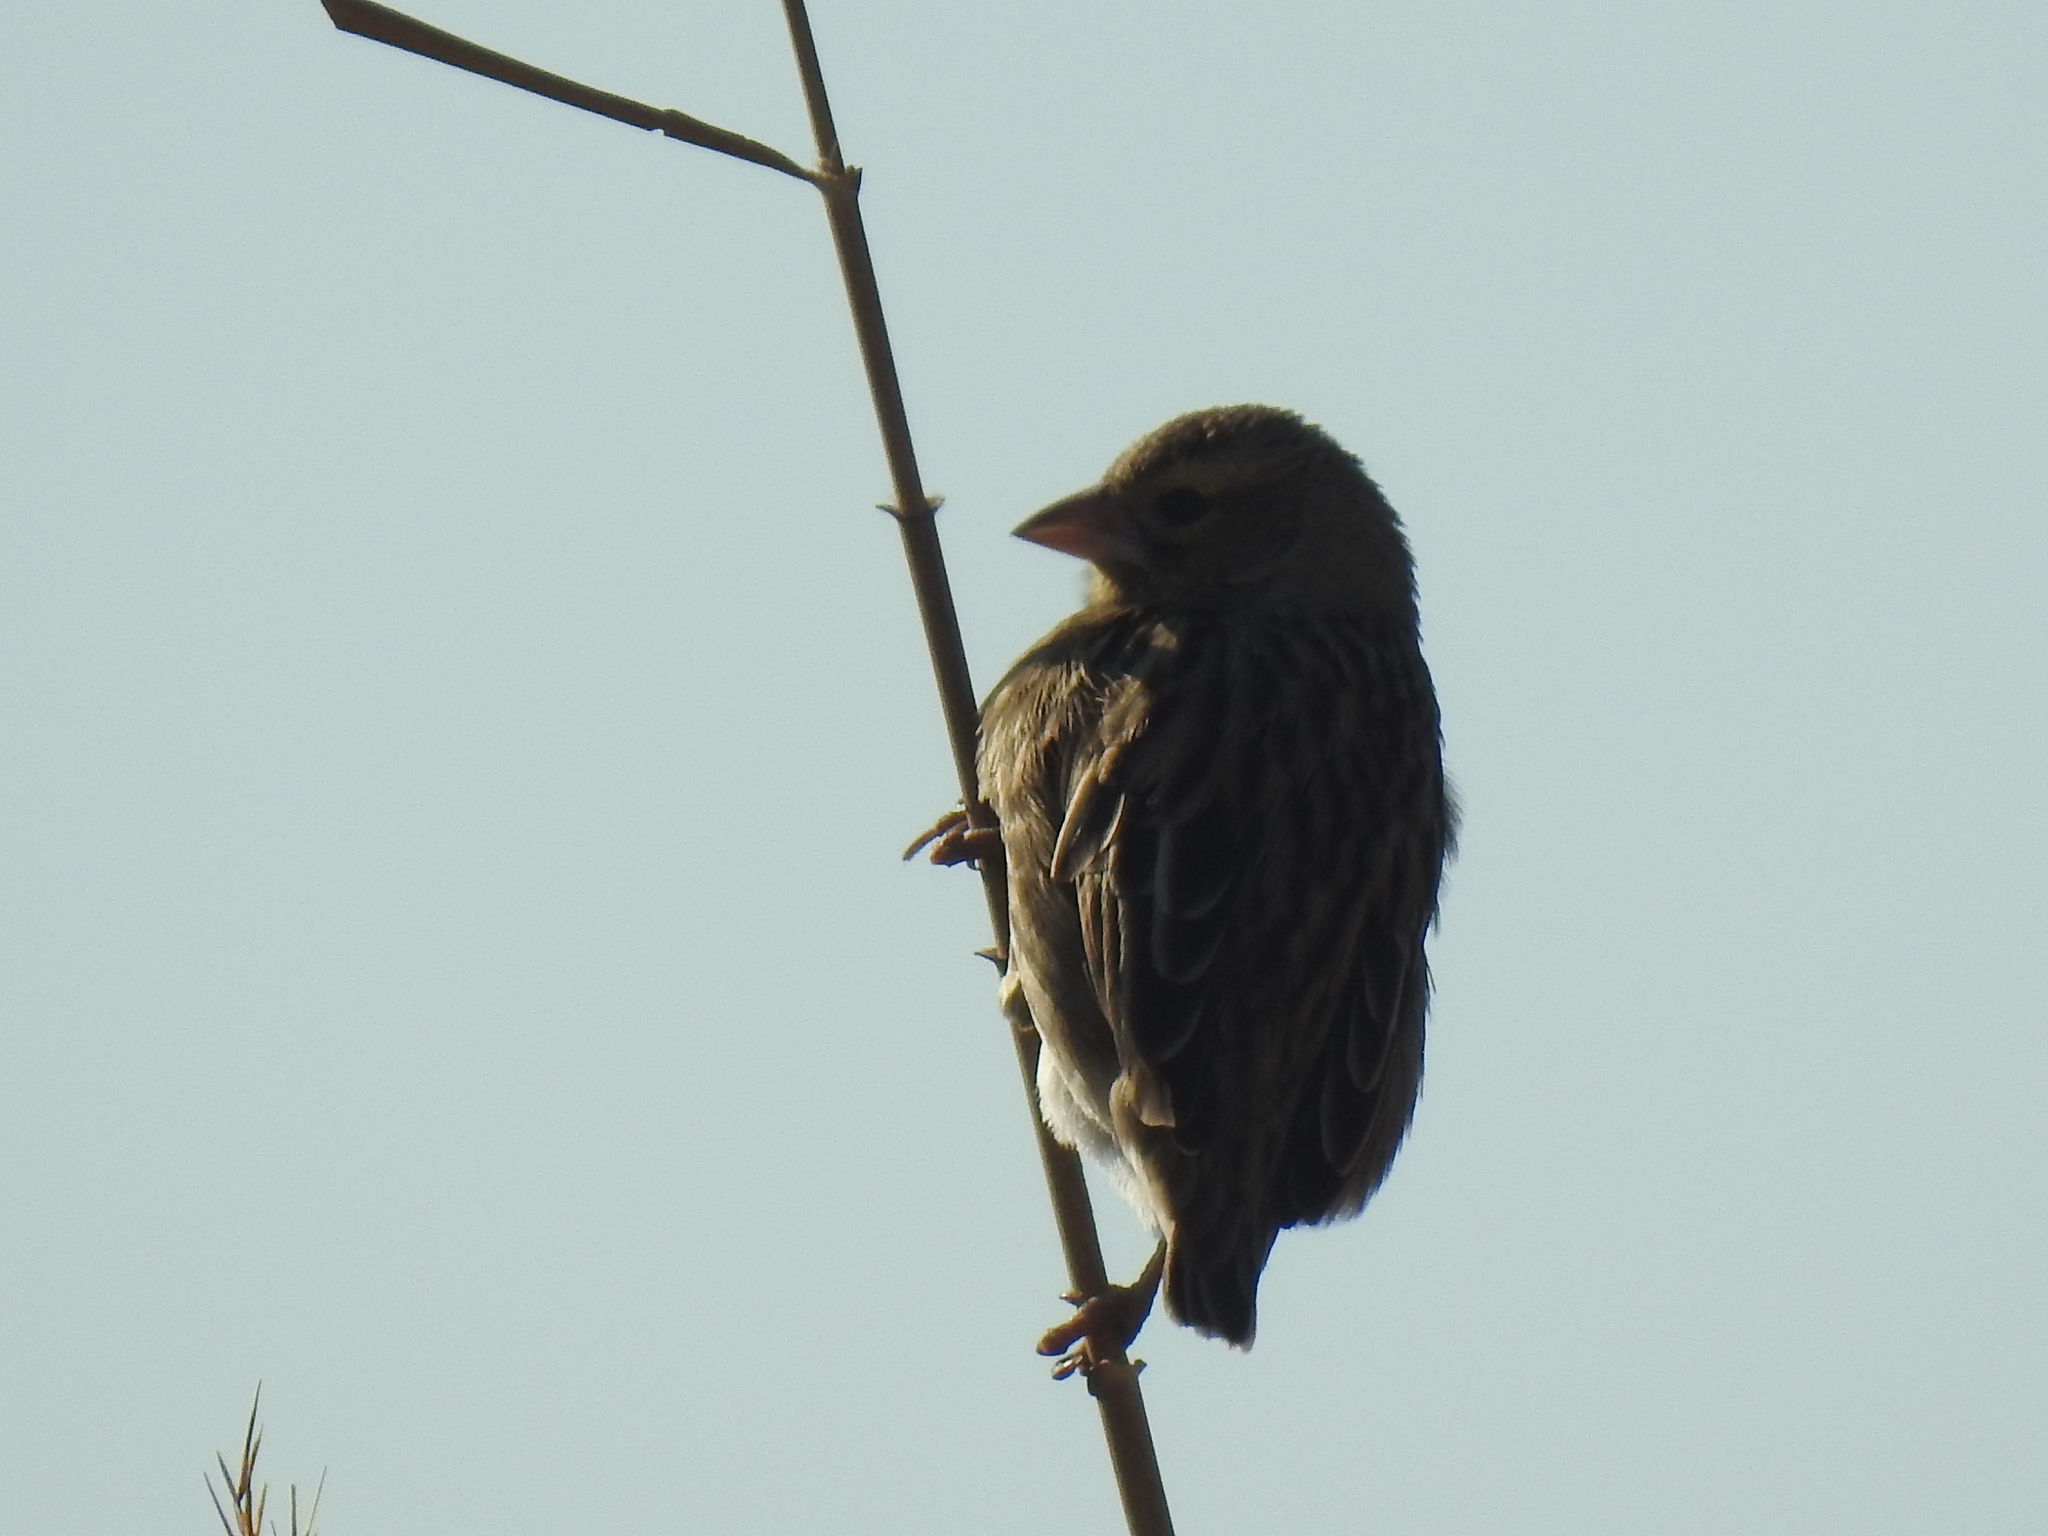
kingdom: Animalia
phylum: Chordata
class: Aves
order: Passeriformes
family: Ploceidae
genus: Euplectes
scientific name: Euplectes orix
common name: Southern red bishop
